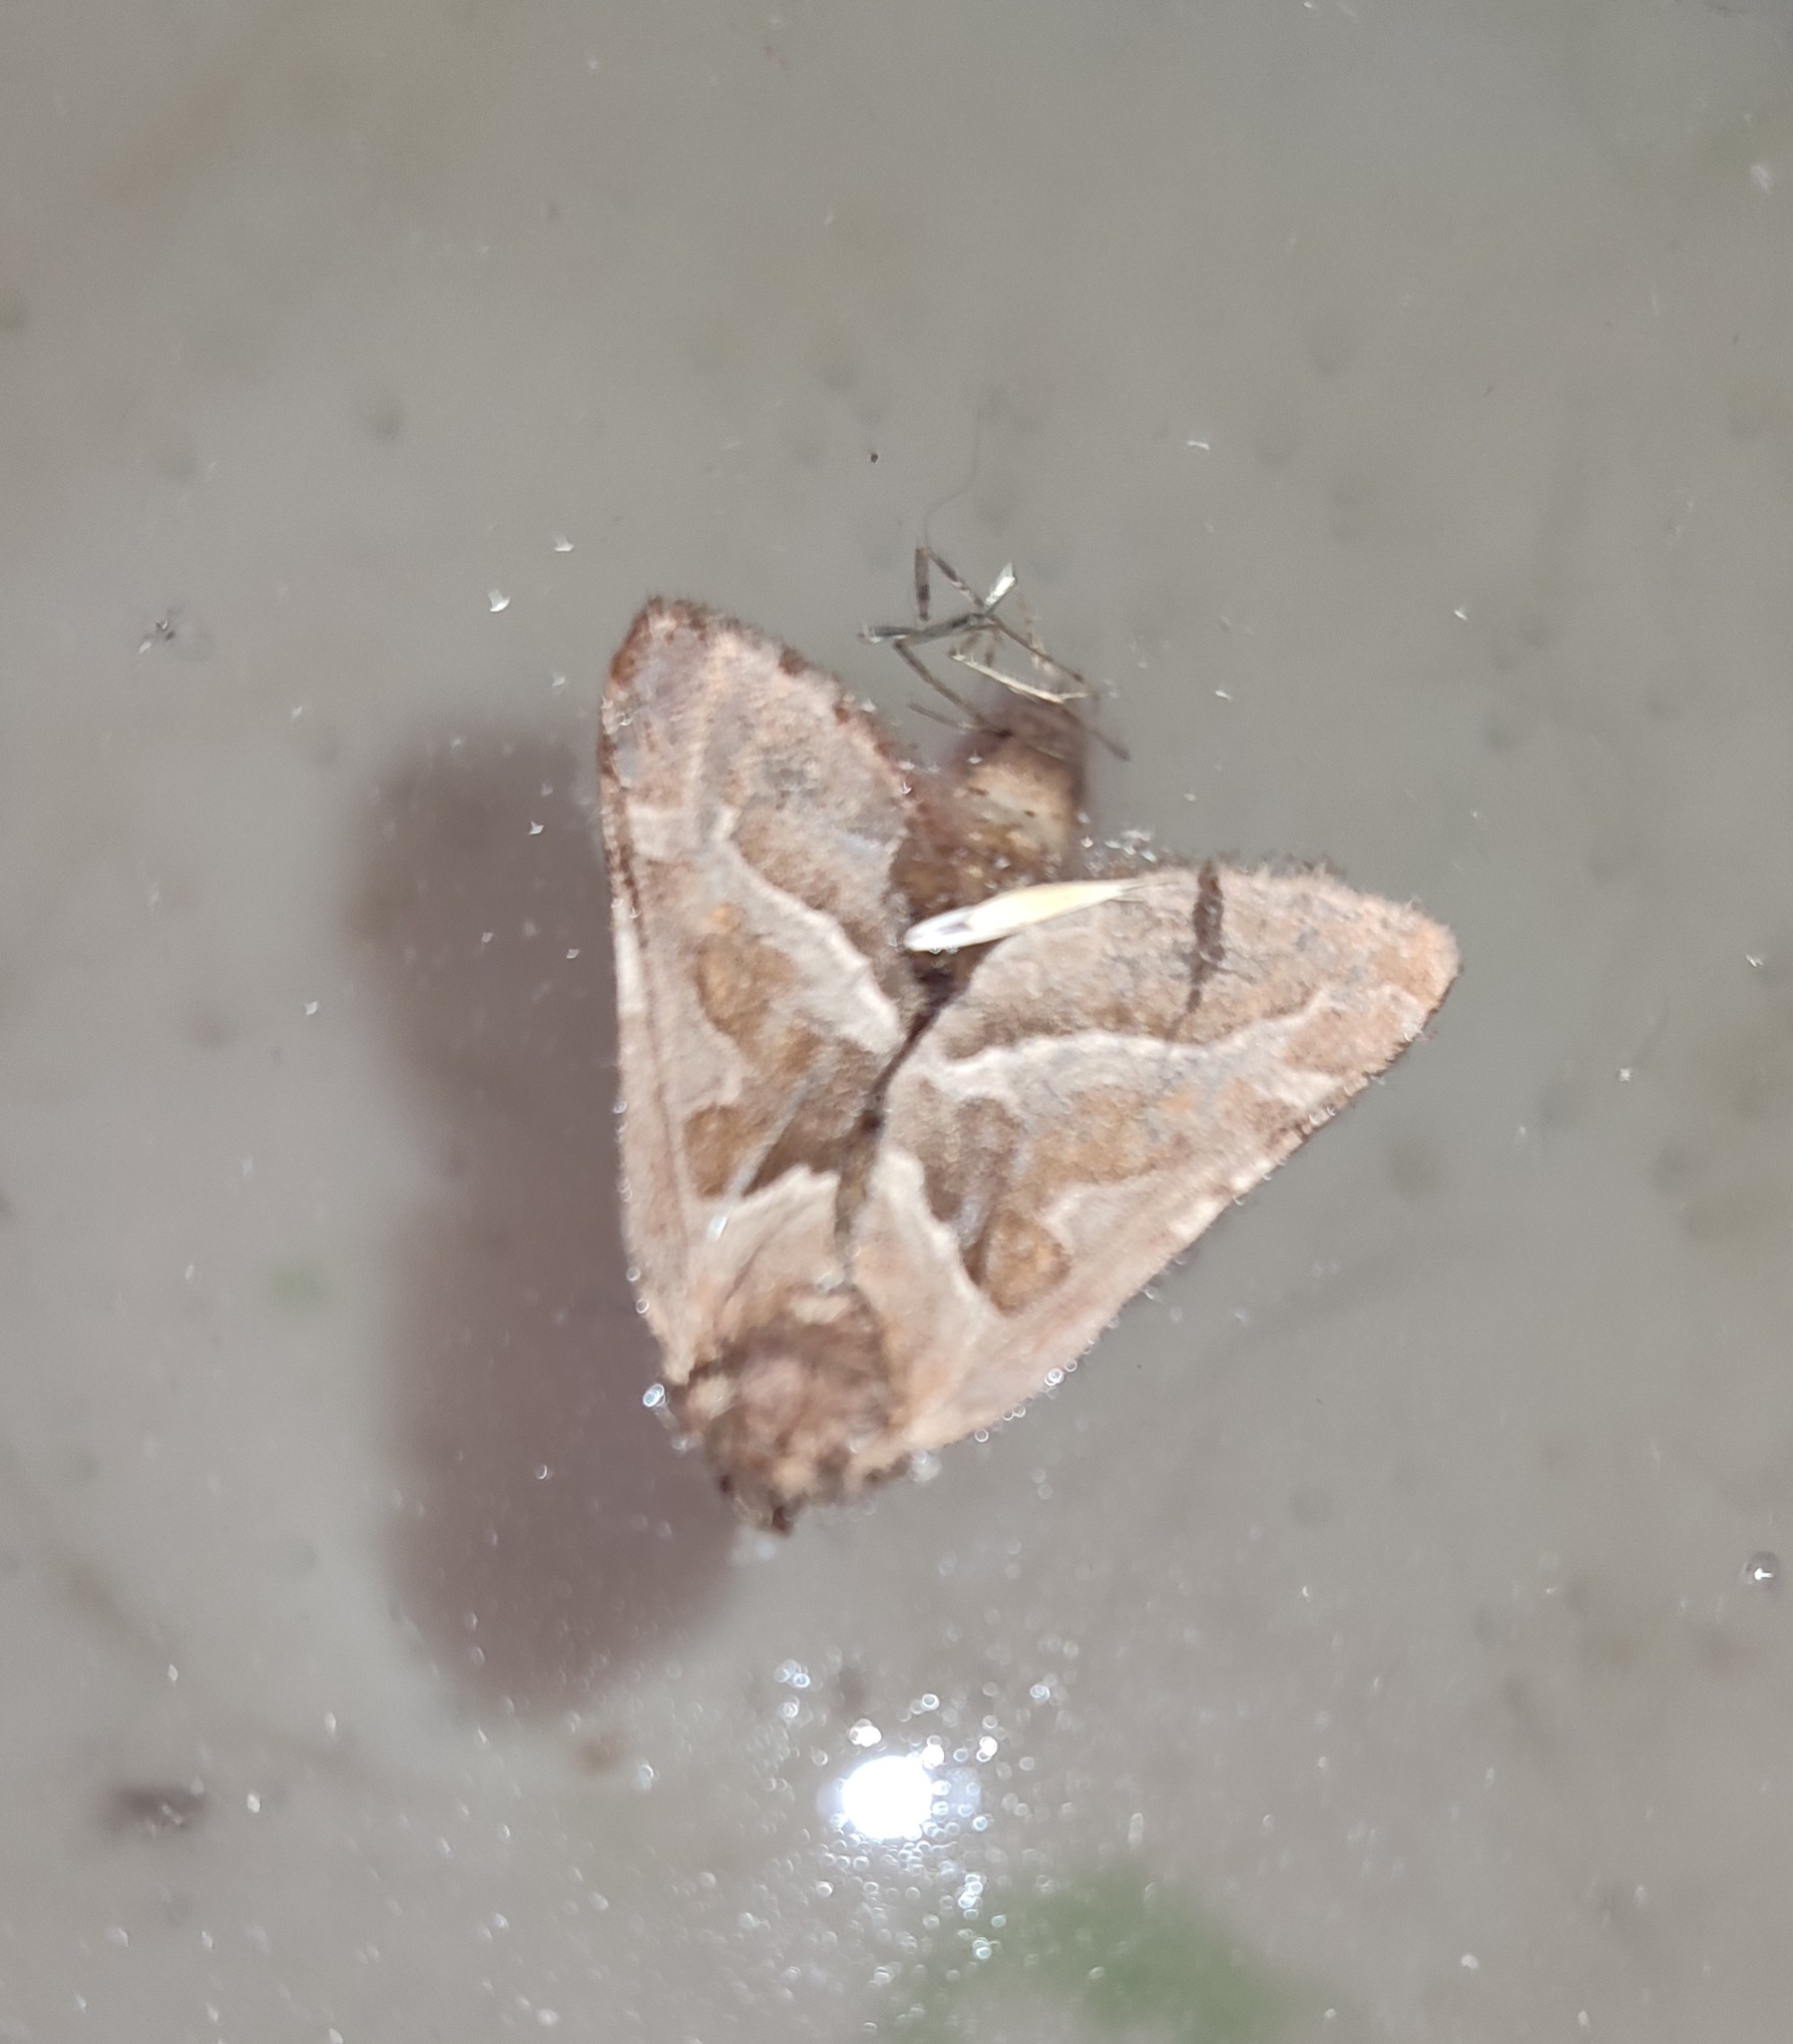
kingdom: Animalia
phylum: Arthropoda
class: Insecta
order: Lepidoptera
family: Hepialidae
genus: Triodia
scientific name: Triodia sylvina
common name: Orange swift
